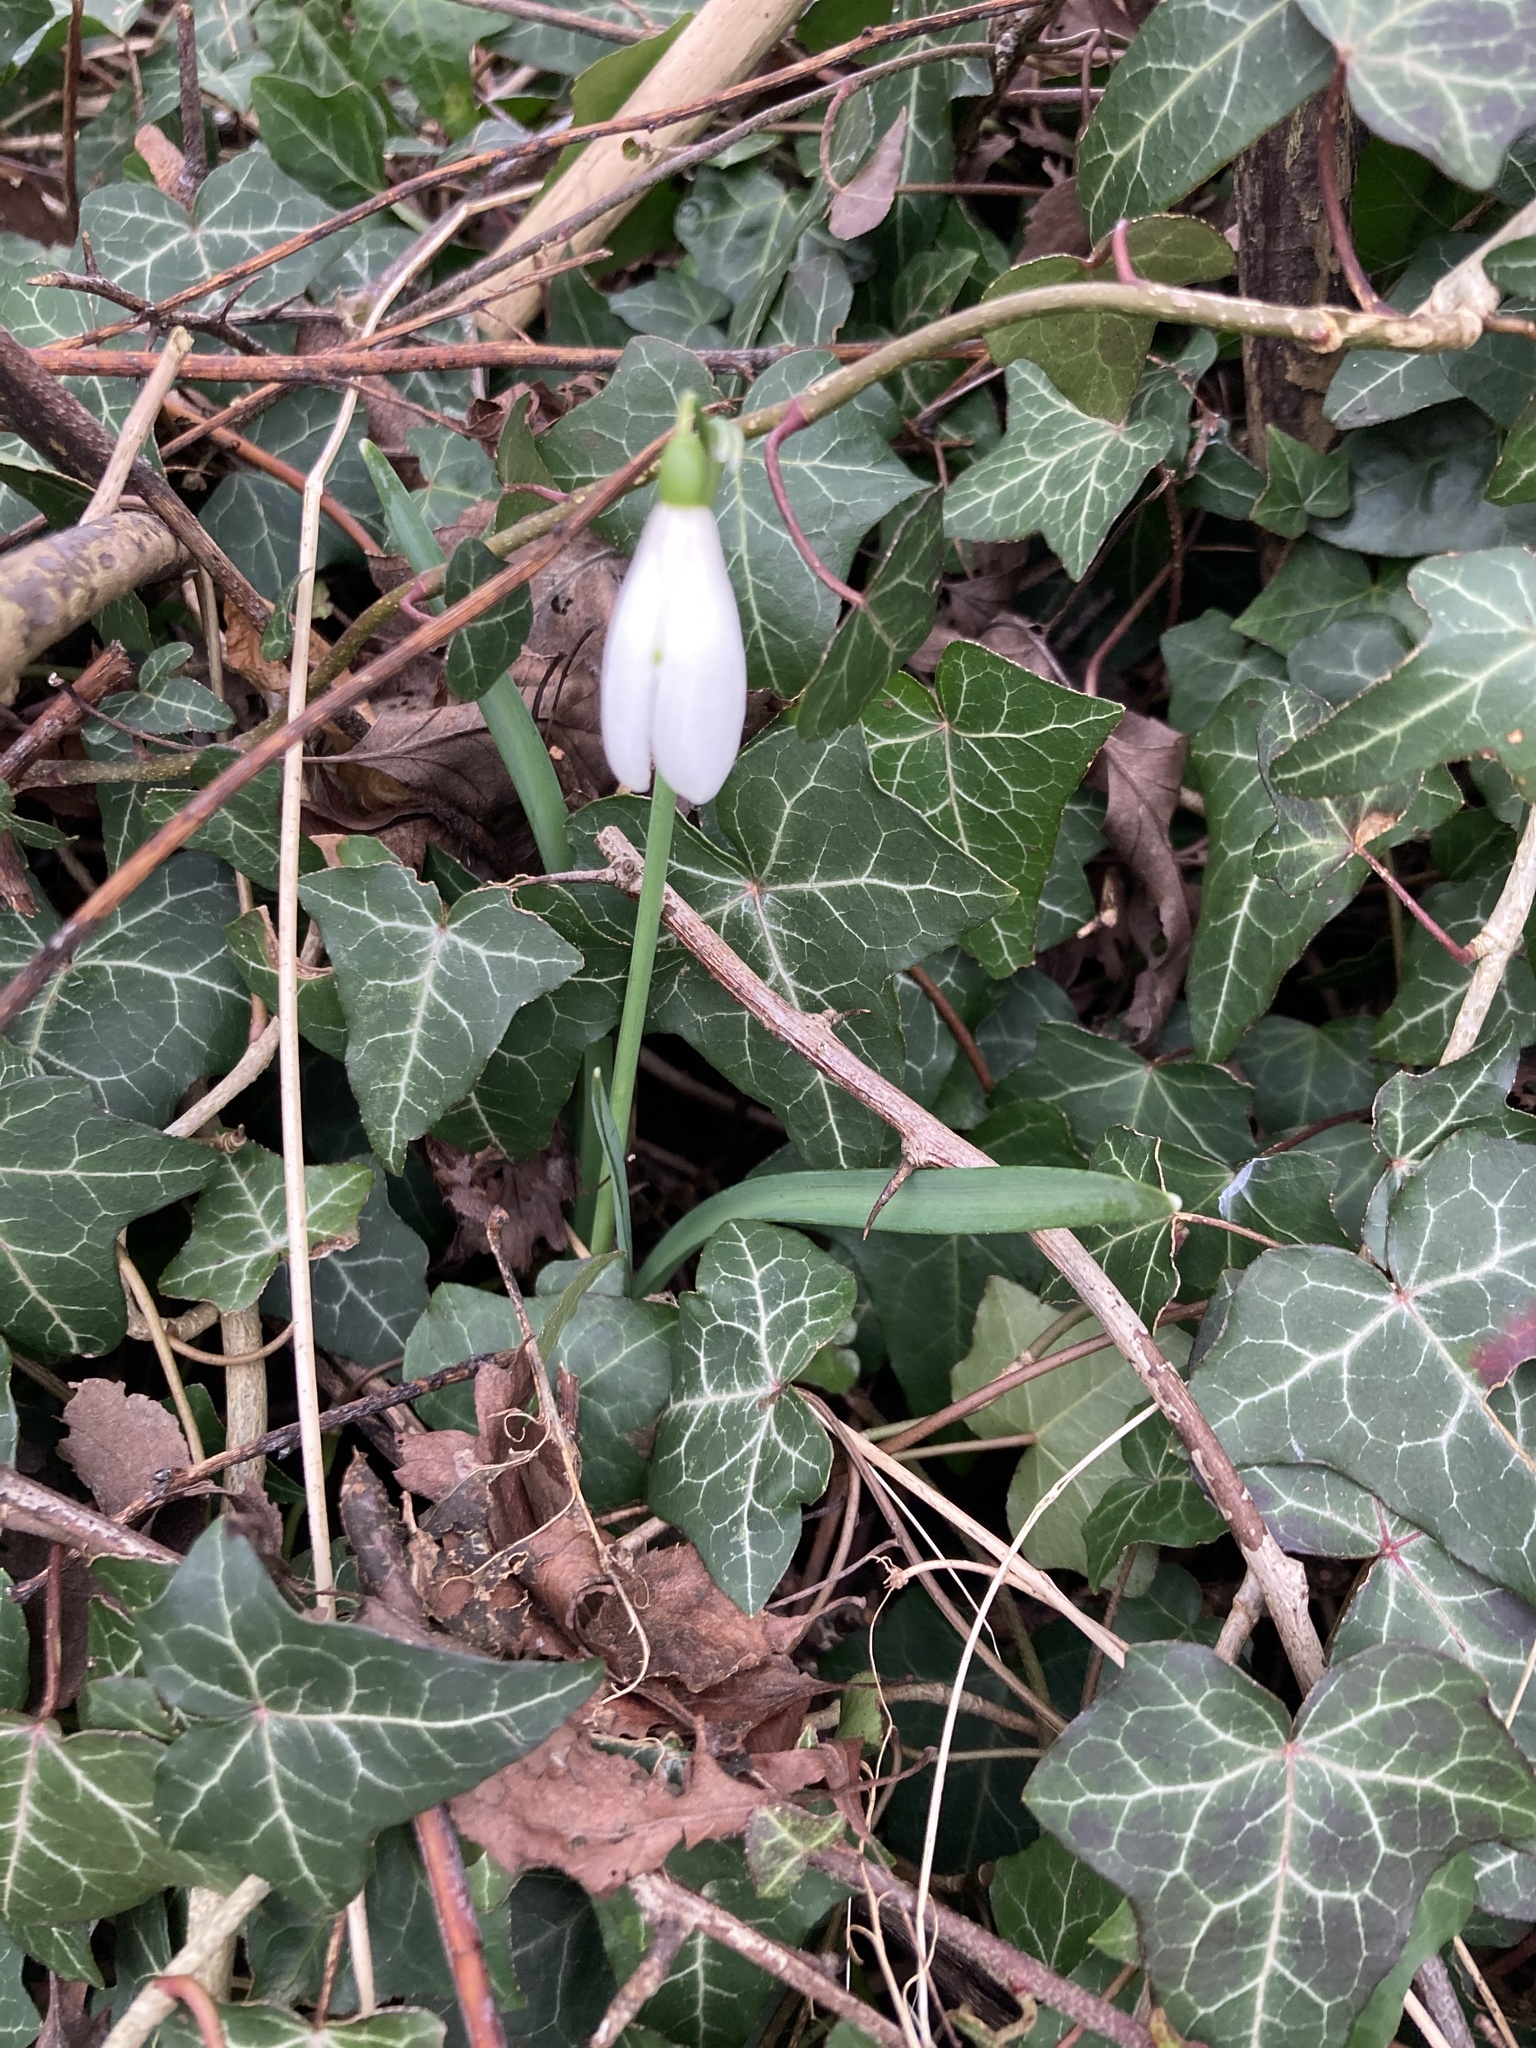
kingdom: Plantae
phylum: Tracheophyta
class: Liliopsida
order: Asparagales
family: Amaryllidaceae
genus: Galanthus
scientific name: Galanthus nivalis
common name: Snowdrop
